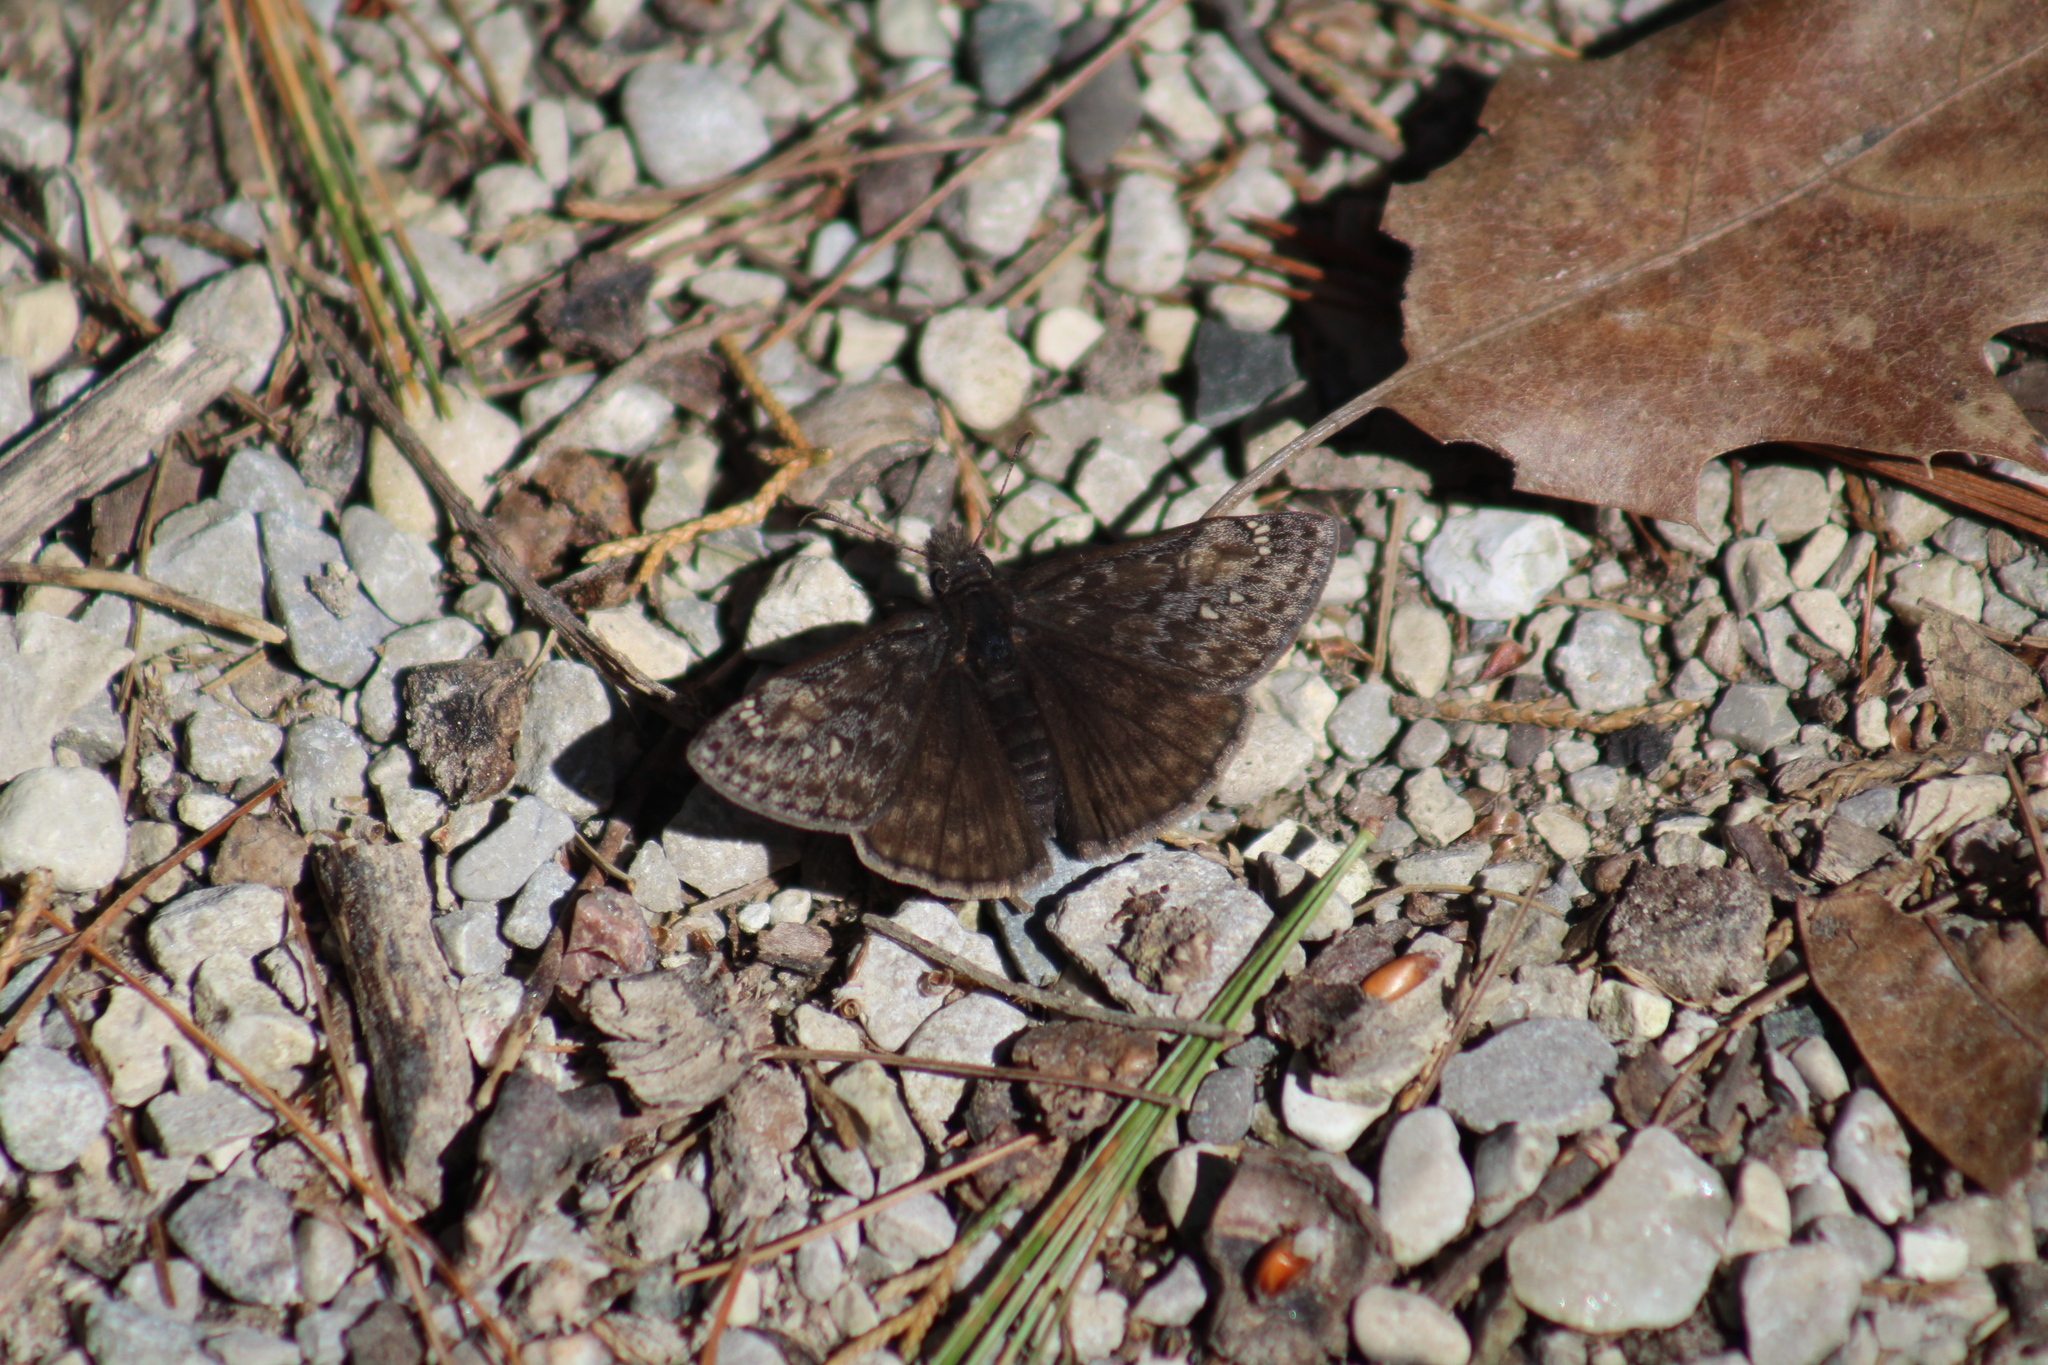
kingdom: Animalia
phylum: Arthropoda
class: Insecta
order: Lepidoptera
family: Hesperiidae
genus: Erynnis
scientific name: Erynnis juvenalis
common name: Juvenal's duskywing
